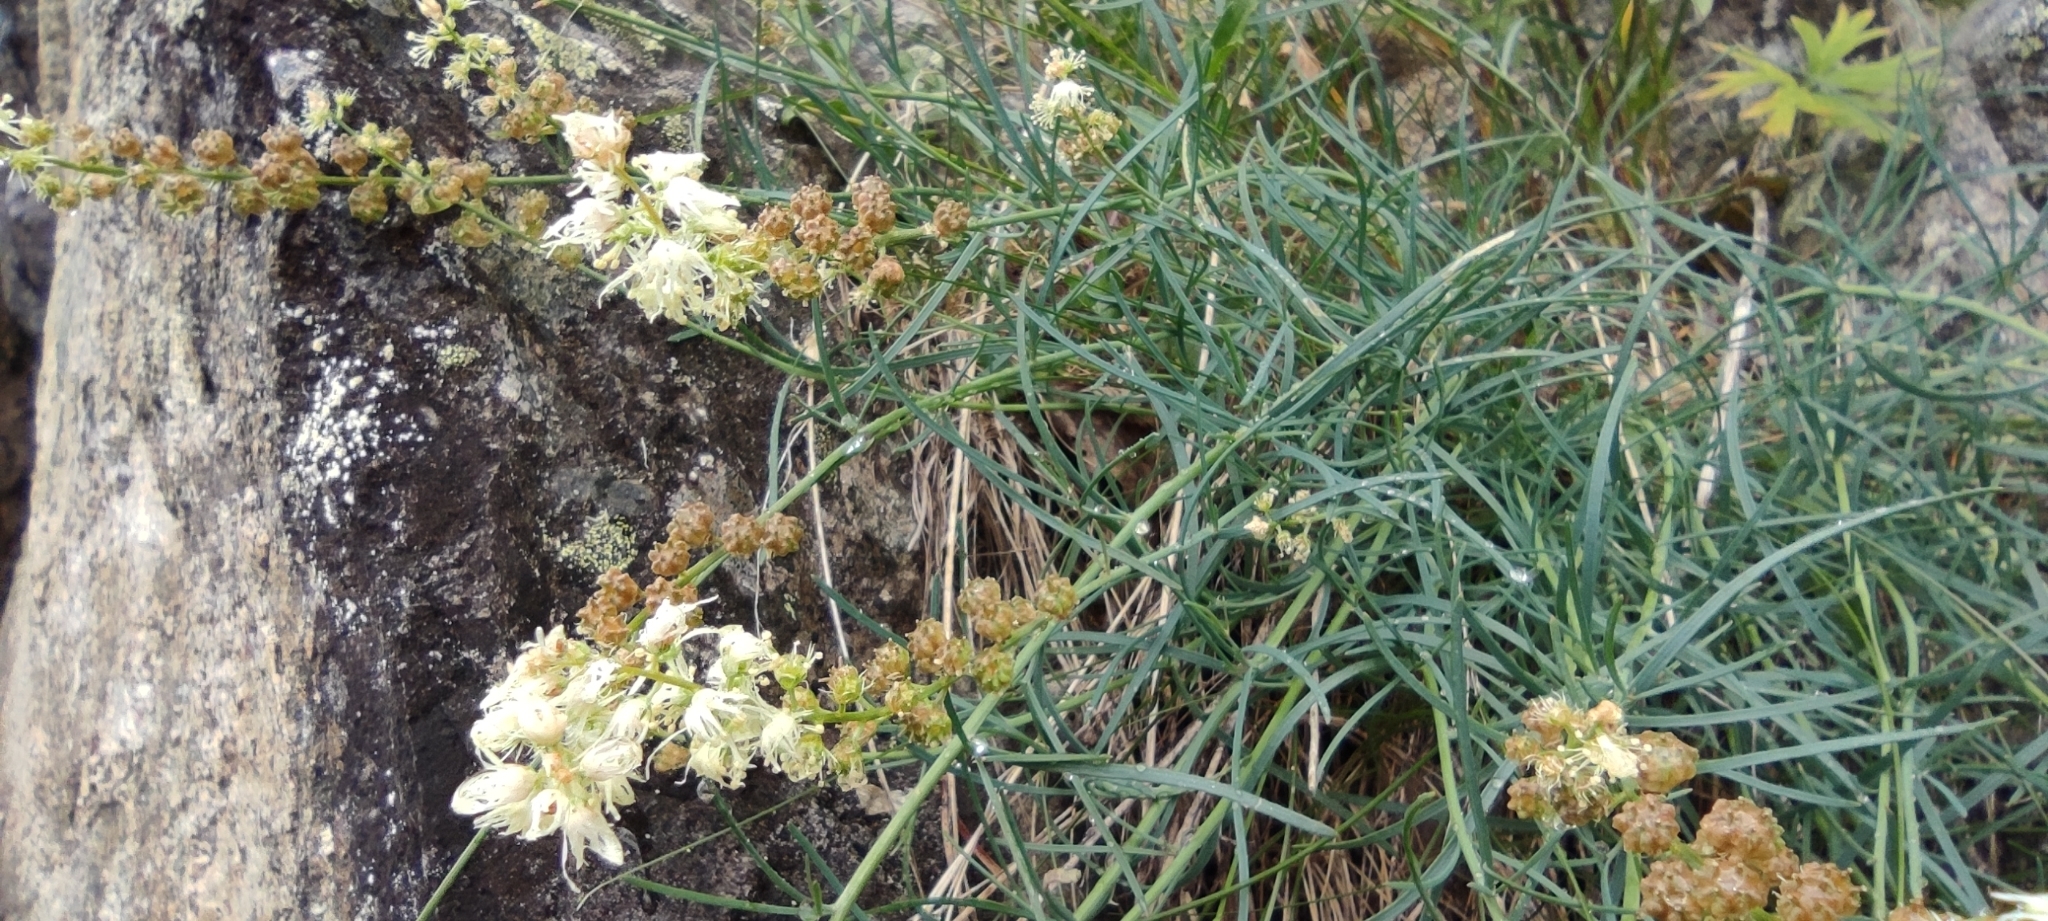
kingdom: Plantae
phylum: Tracheophyta
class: Magnoliopsida
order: Brassicales
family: Resedaceae
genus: Reseda
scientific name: Reseda glauca
